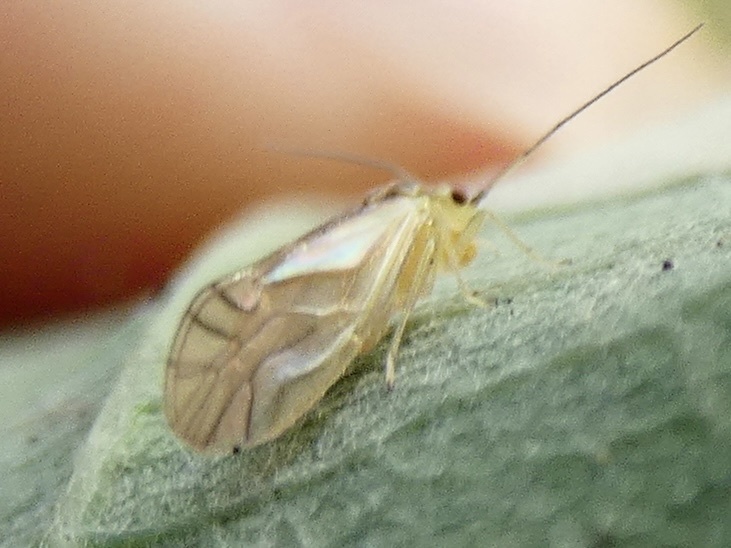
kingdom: Animalia
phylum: Arthropoda
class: Insecta
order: Psocodea
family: Caeciliusidae
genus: Valenzuela
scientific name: Valenzuela flavidus
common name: Yellow barklouse
